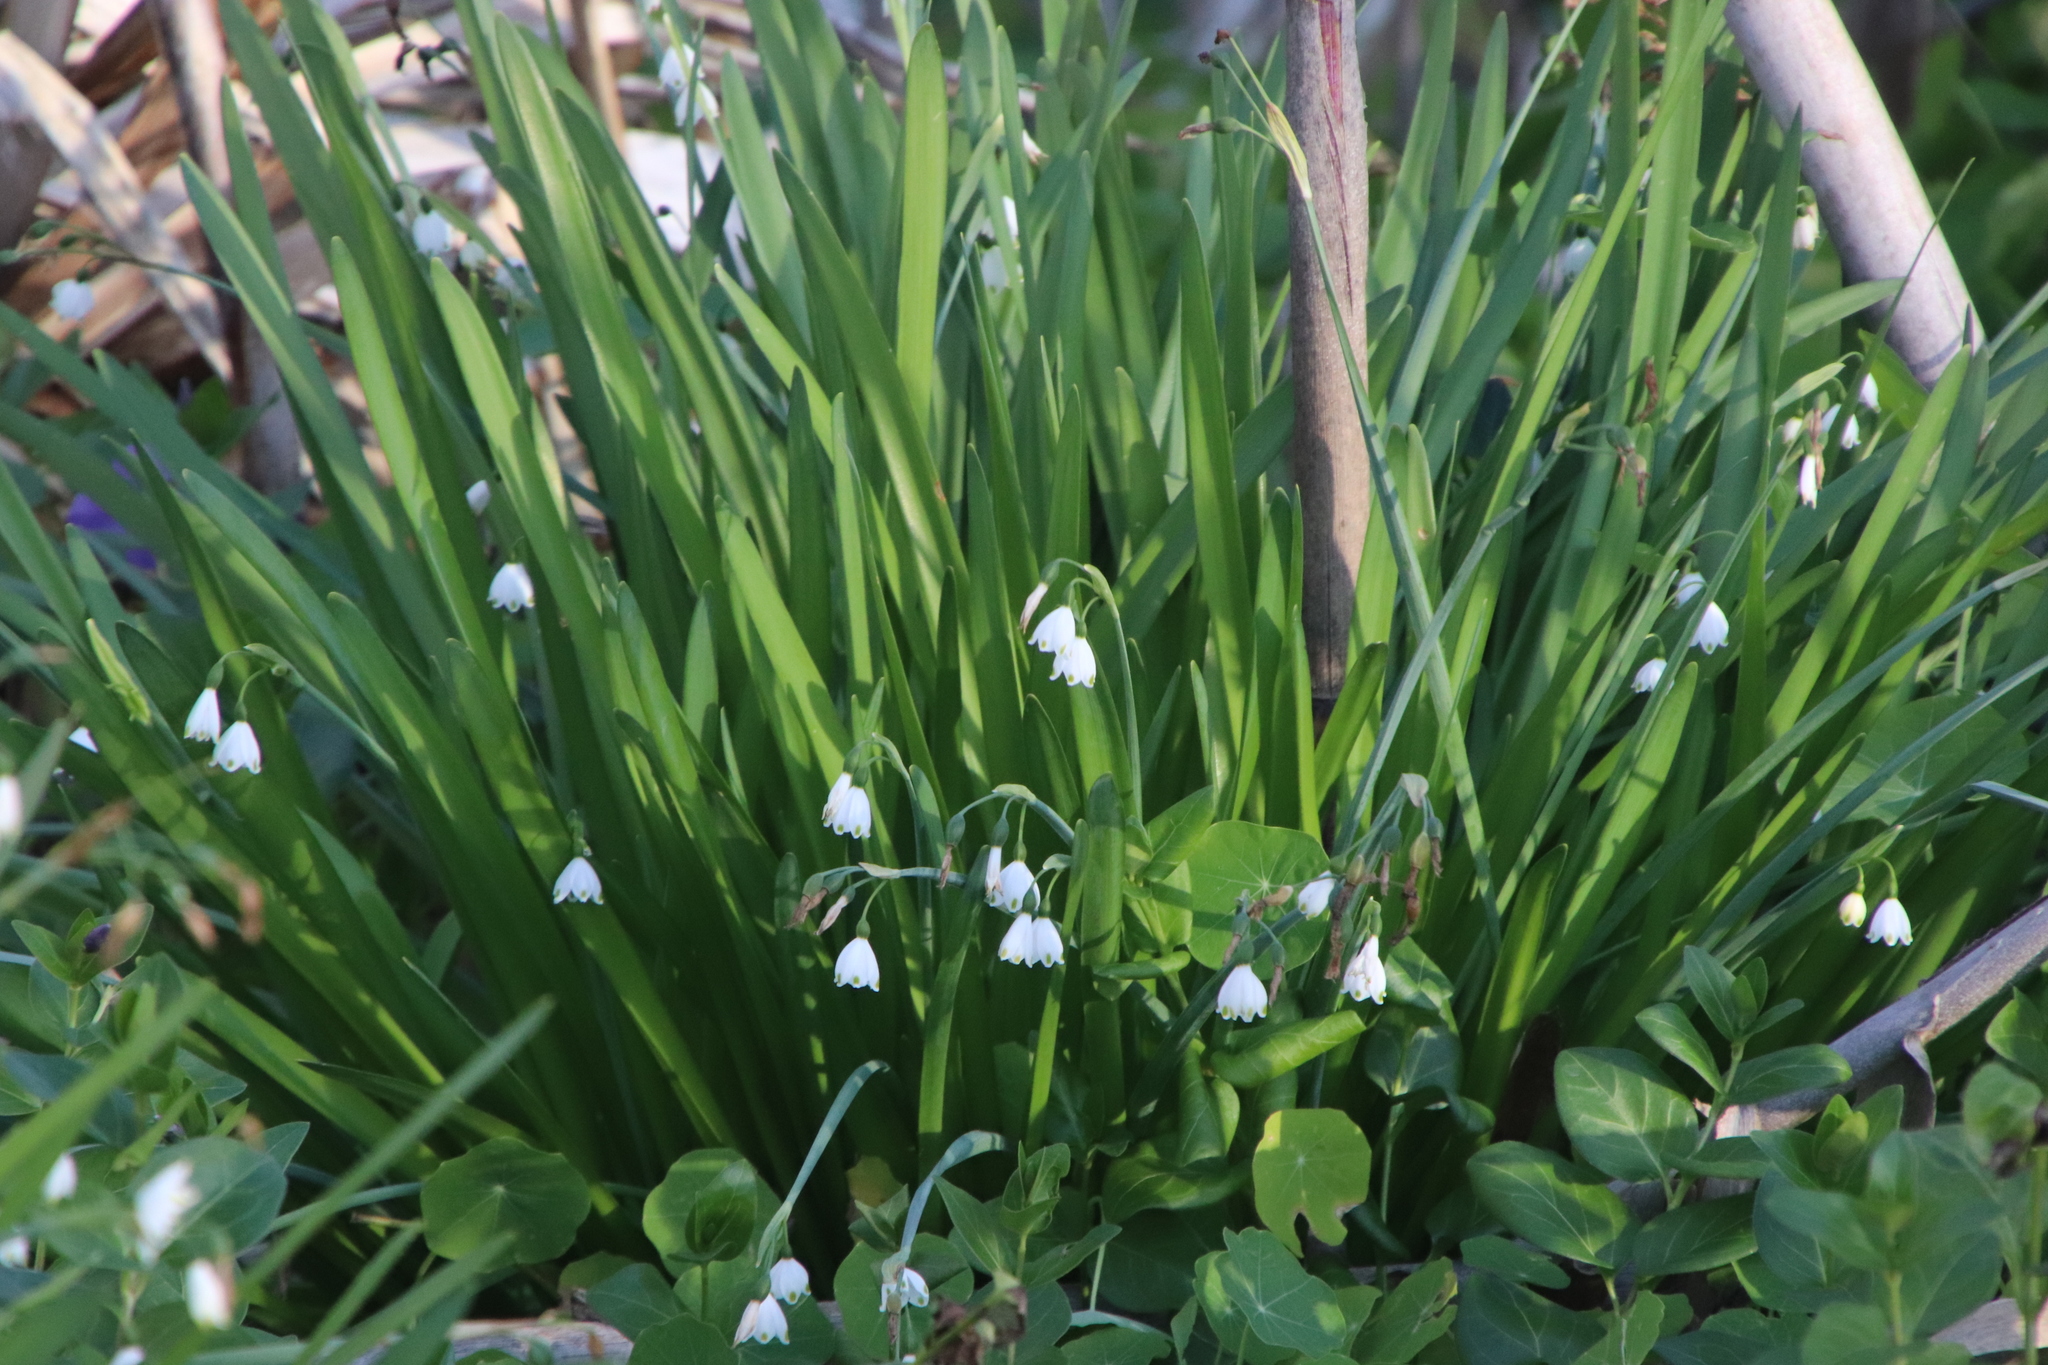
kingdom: Plantae
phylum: Tracheophyta
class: Liliopsida
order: Asparagales
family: Amaryllidaceae
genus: Leucojum
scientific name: Leucojum aestivum
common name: Summer snowflake
